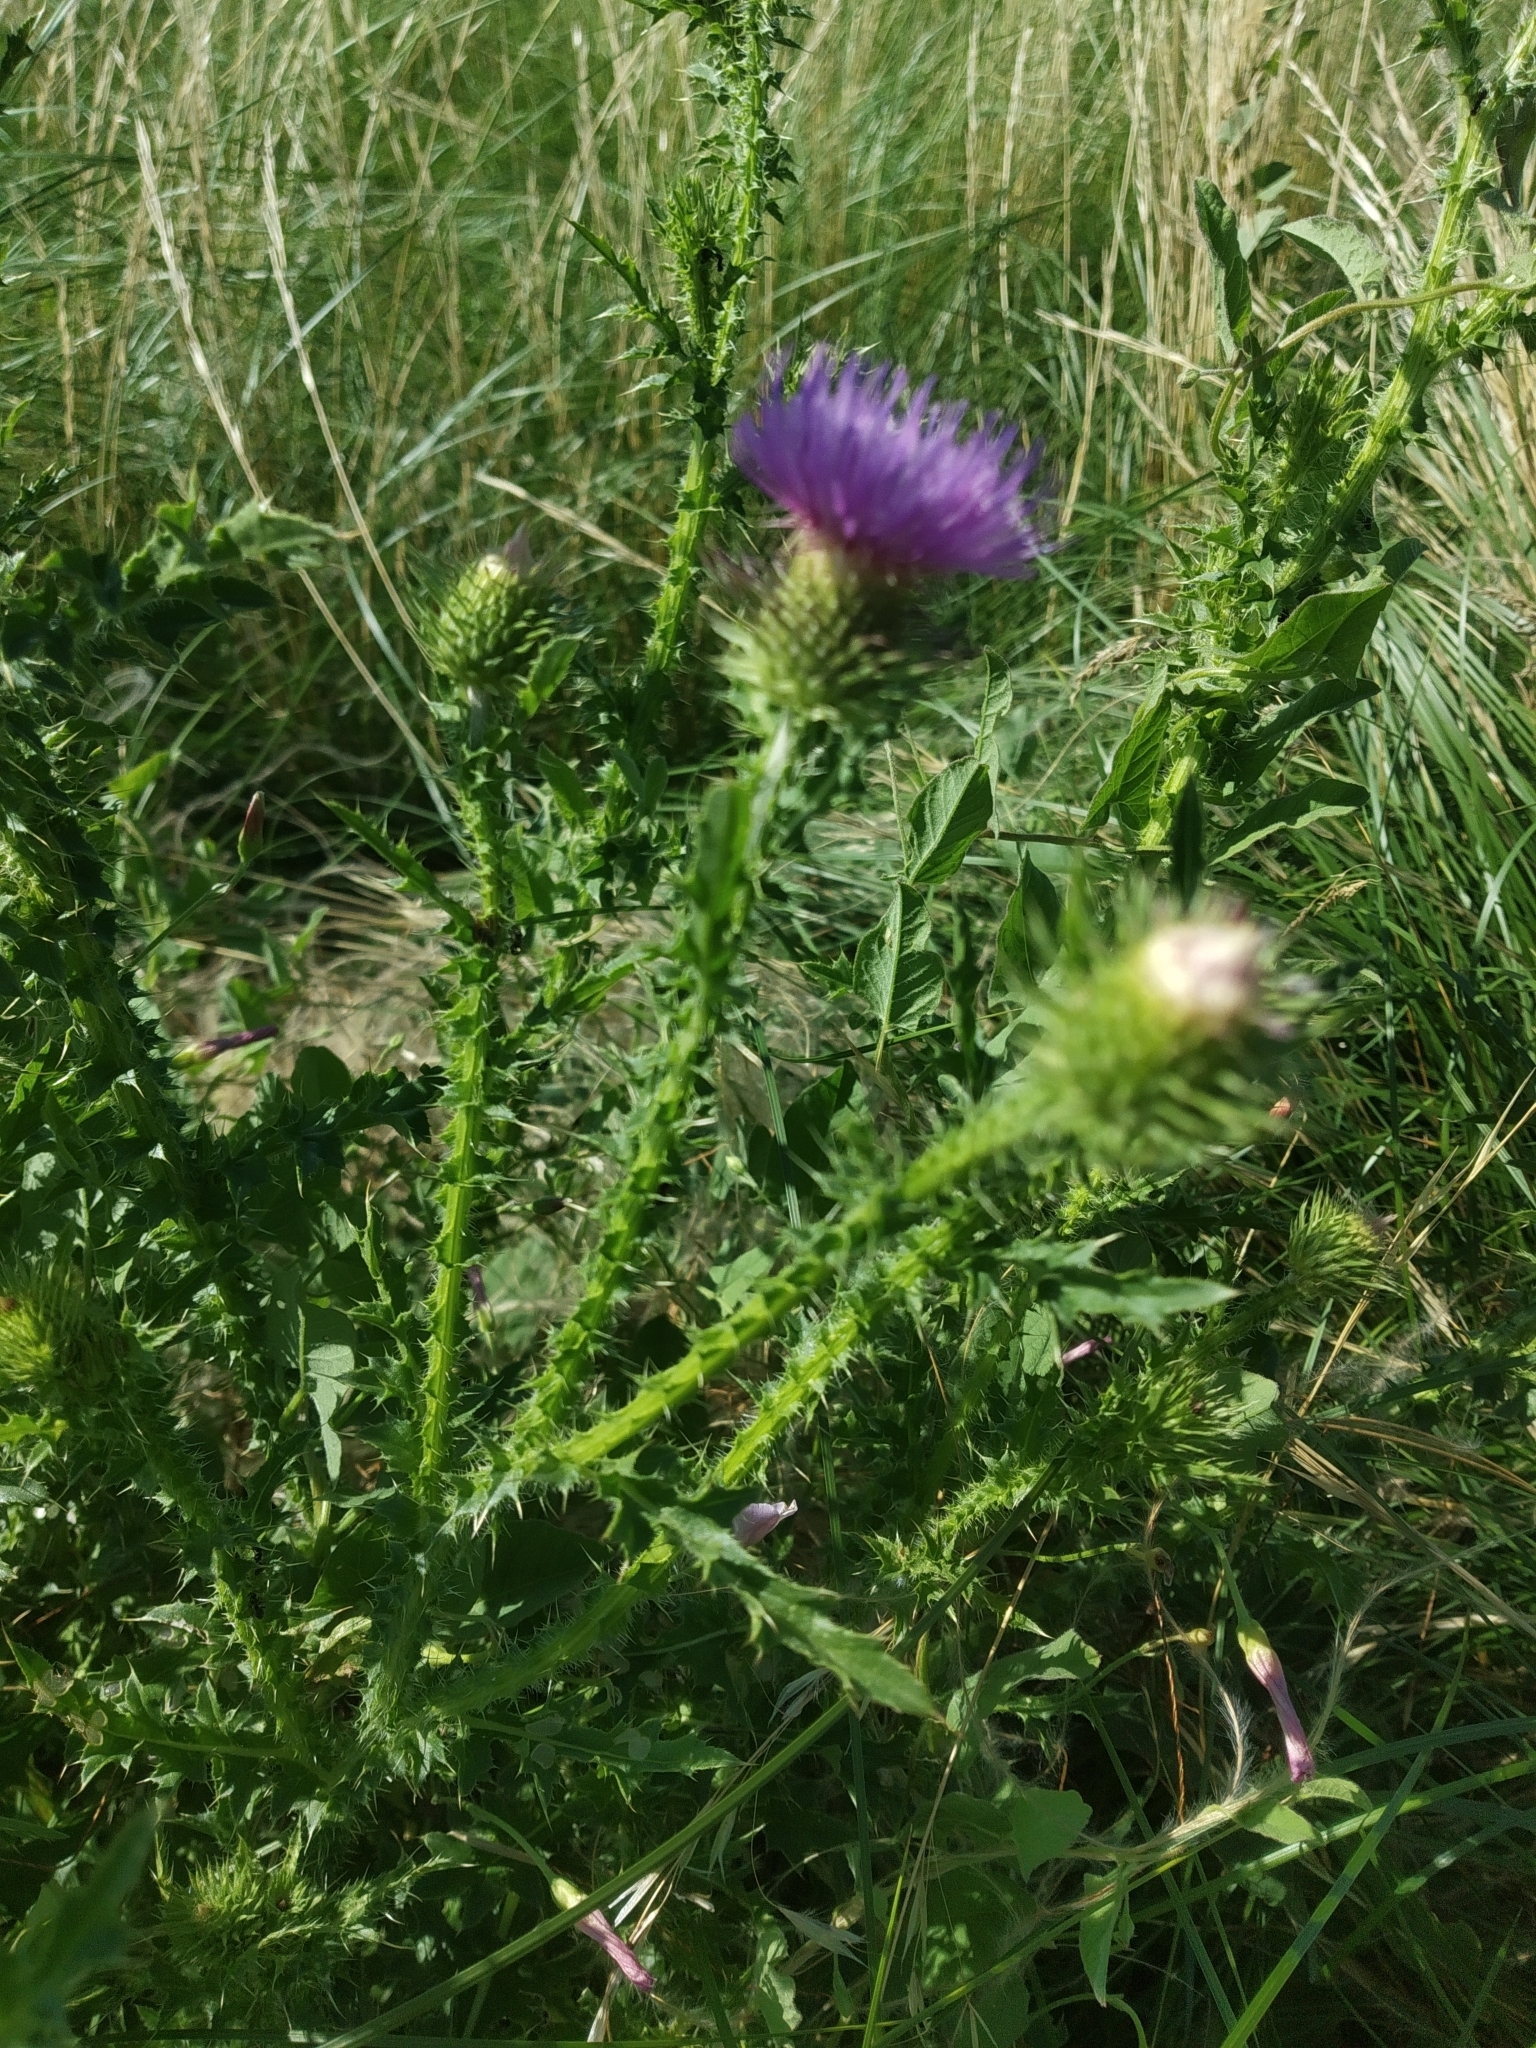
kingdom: Plantae
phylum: Tracheophyta
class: Magnoliopsida
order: Asterales
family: Asteraceae
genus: Carduus
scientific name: Carduus acanthoides
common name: Plumeless thistle
